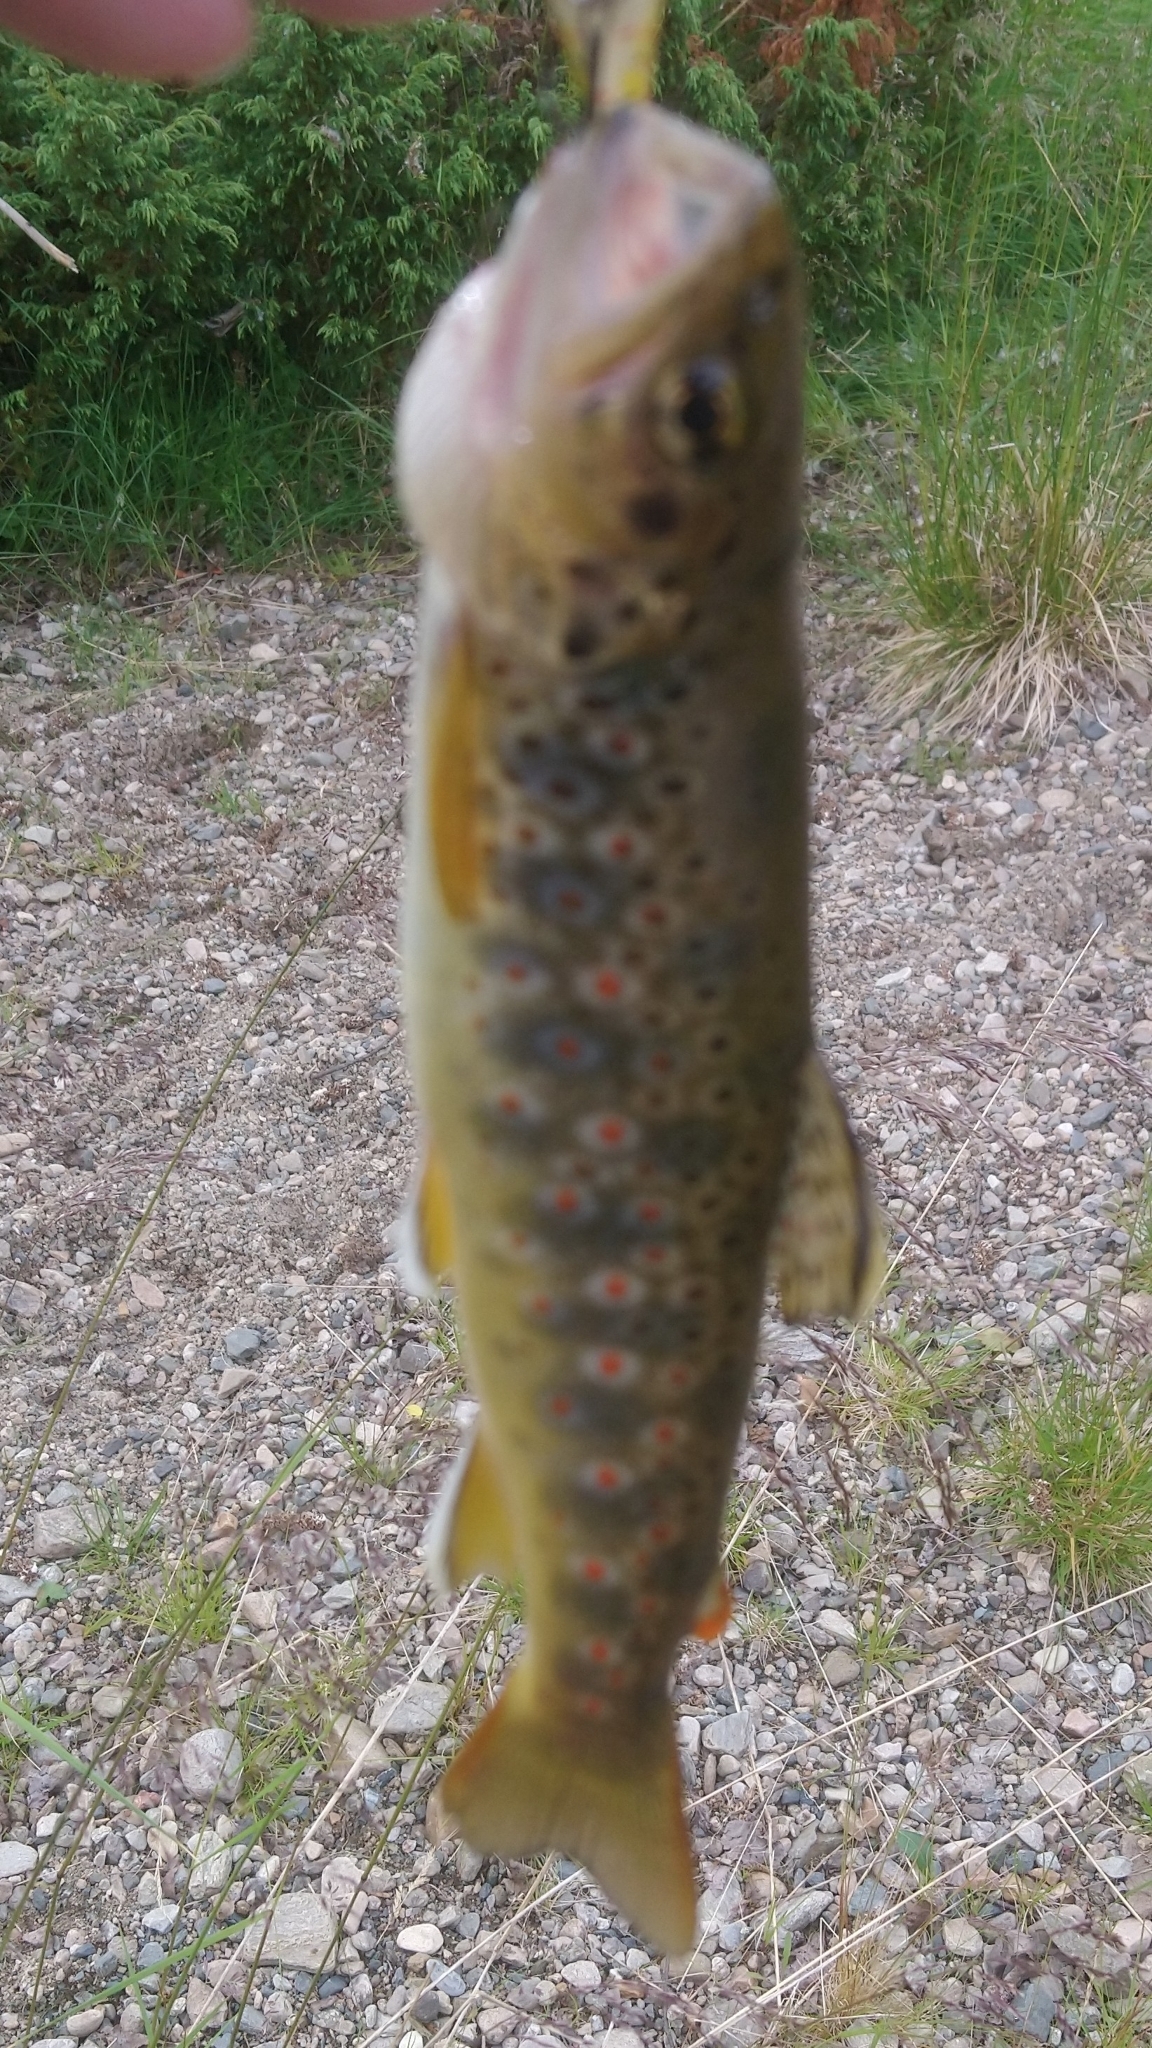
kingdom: Animalia
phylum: Chordata
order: Salmoniformes
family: Salmonidae
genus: Salmo
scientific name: Salmo trutta
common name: Brown trout
